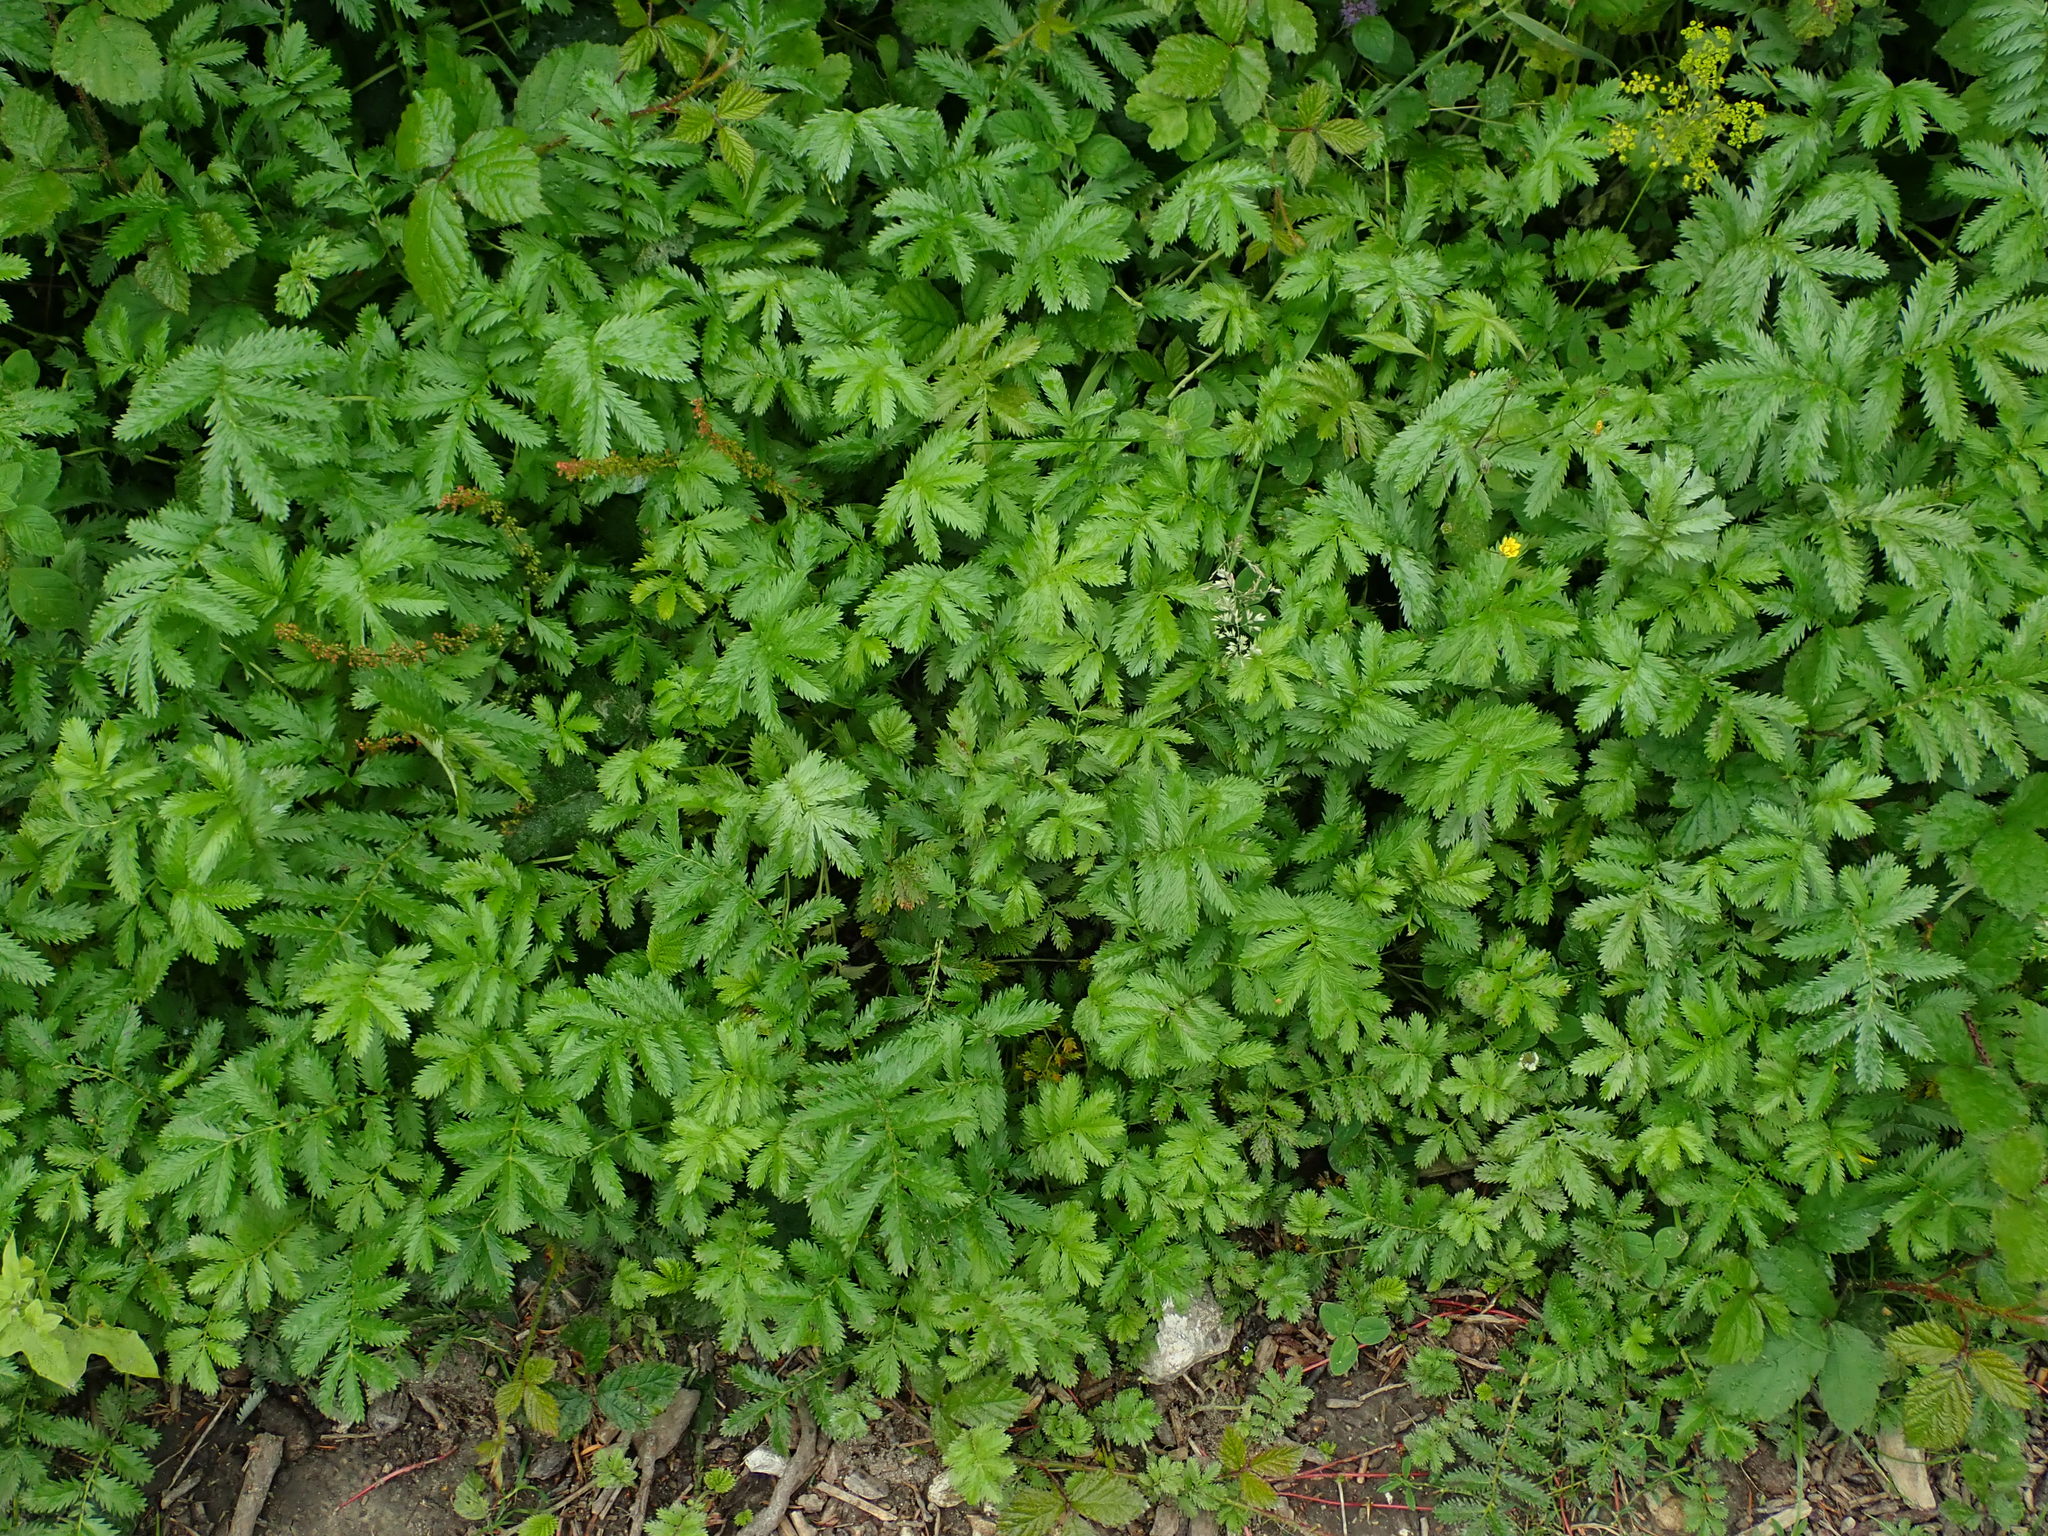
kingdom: Plantae
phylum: Tracheophyta
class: Magnoliopsida
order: Rosales
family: Rosaceae
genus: Argentina
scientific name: Argentina anserina
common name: Common silverweed
